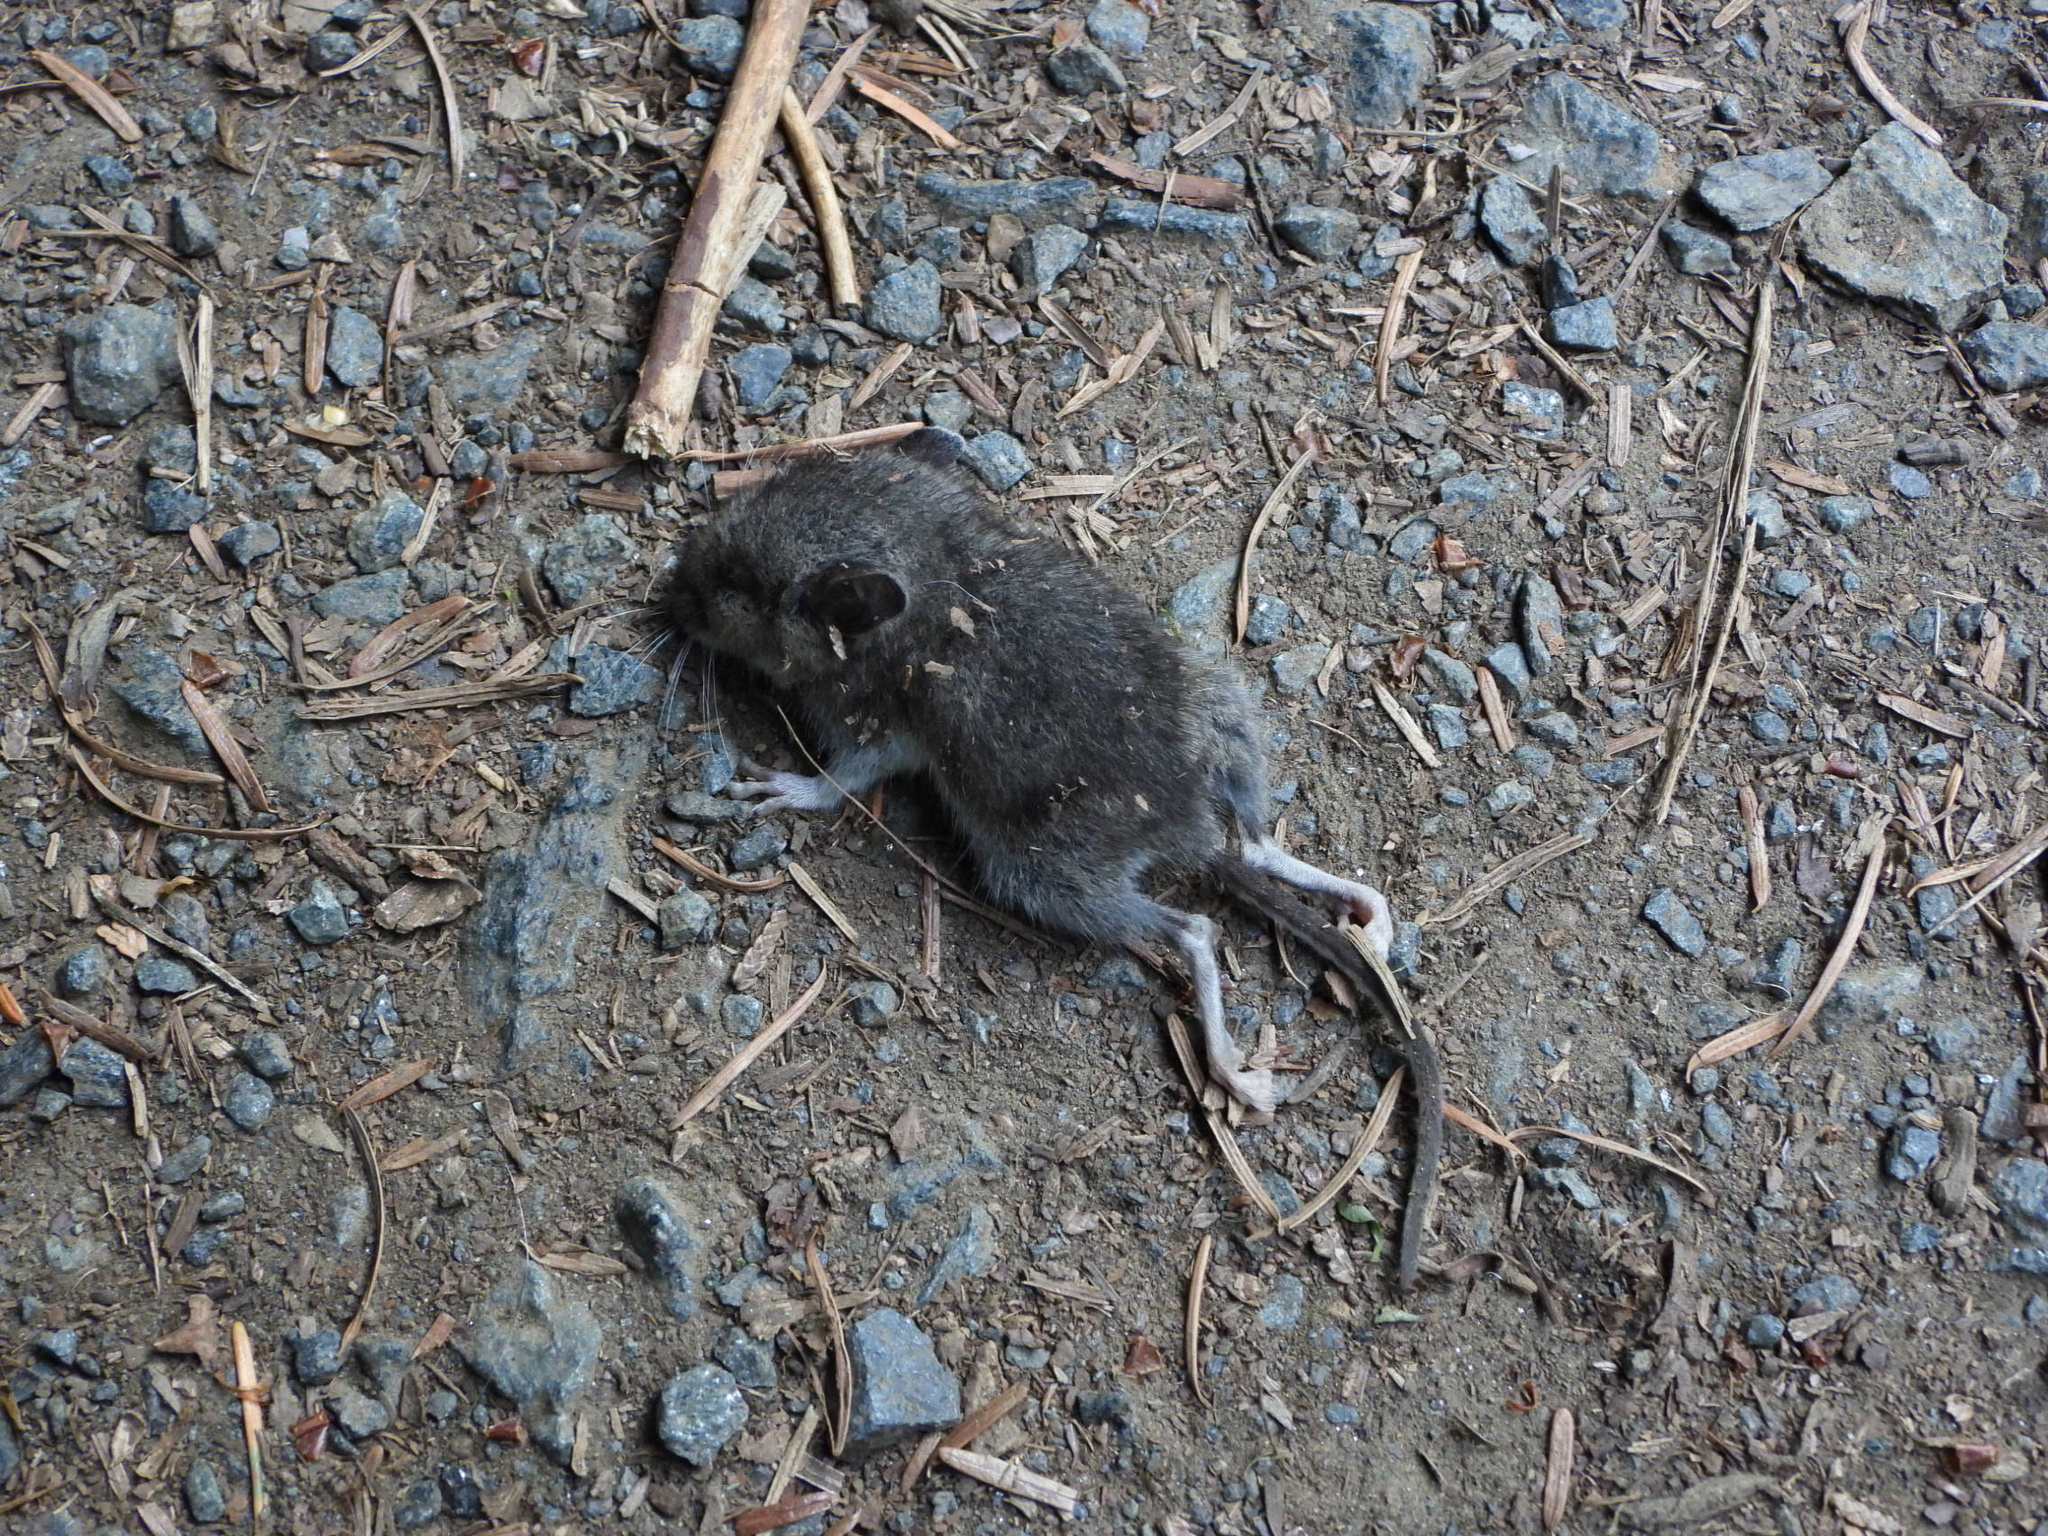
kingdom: Animalia
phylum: Chordata
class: Mammalia
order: Rodentia
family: Cricetidae
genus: Peromyscus
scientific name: Peromyscus maniculatus
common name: Deer mouse
